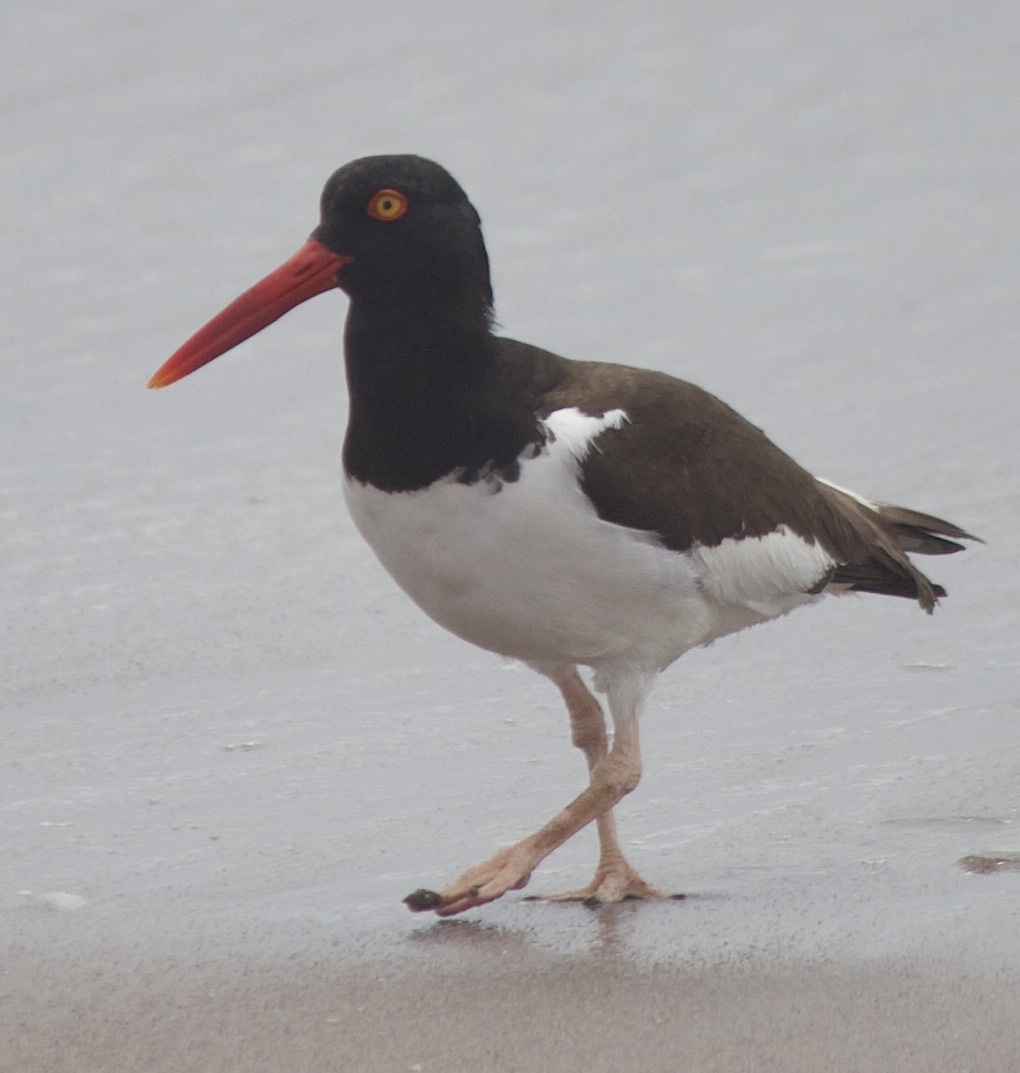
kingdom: Animalia
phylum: Chordata
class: Aves
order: Charadriiformes
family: Haematopodidae
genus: Haematopus
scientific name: Haematopus palliatus
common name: American oystercatcher
